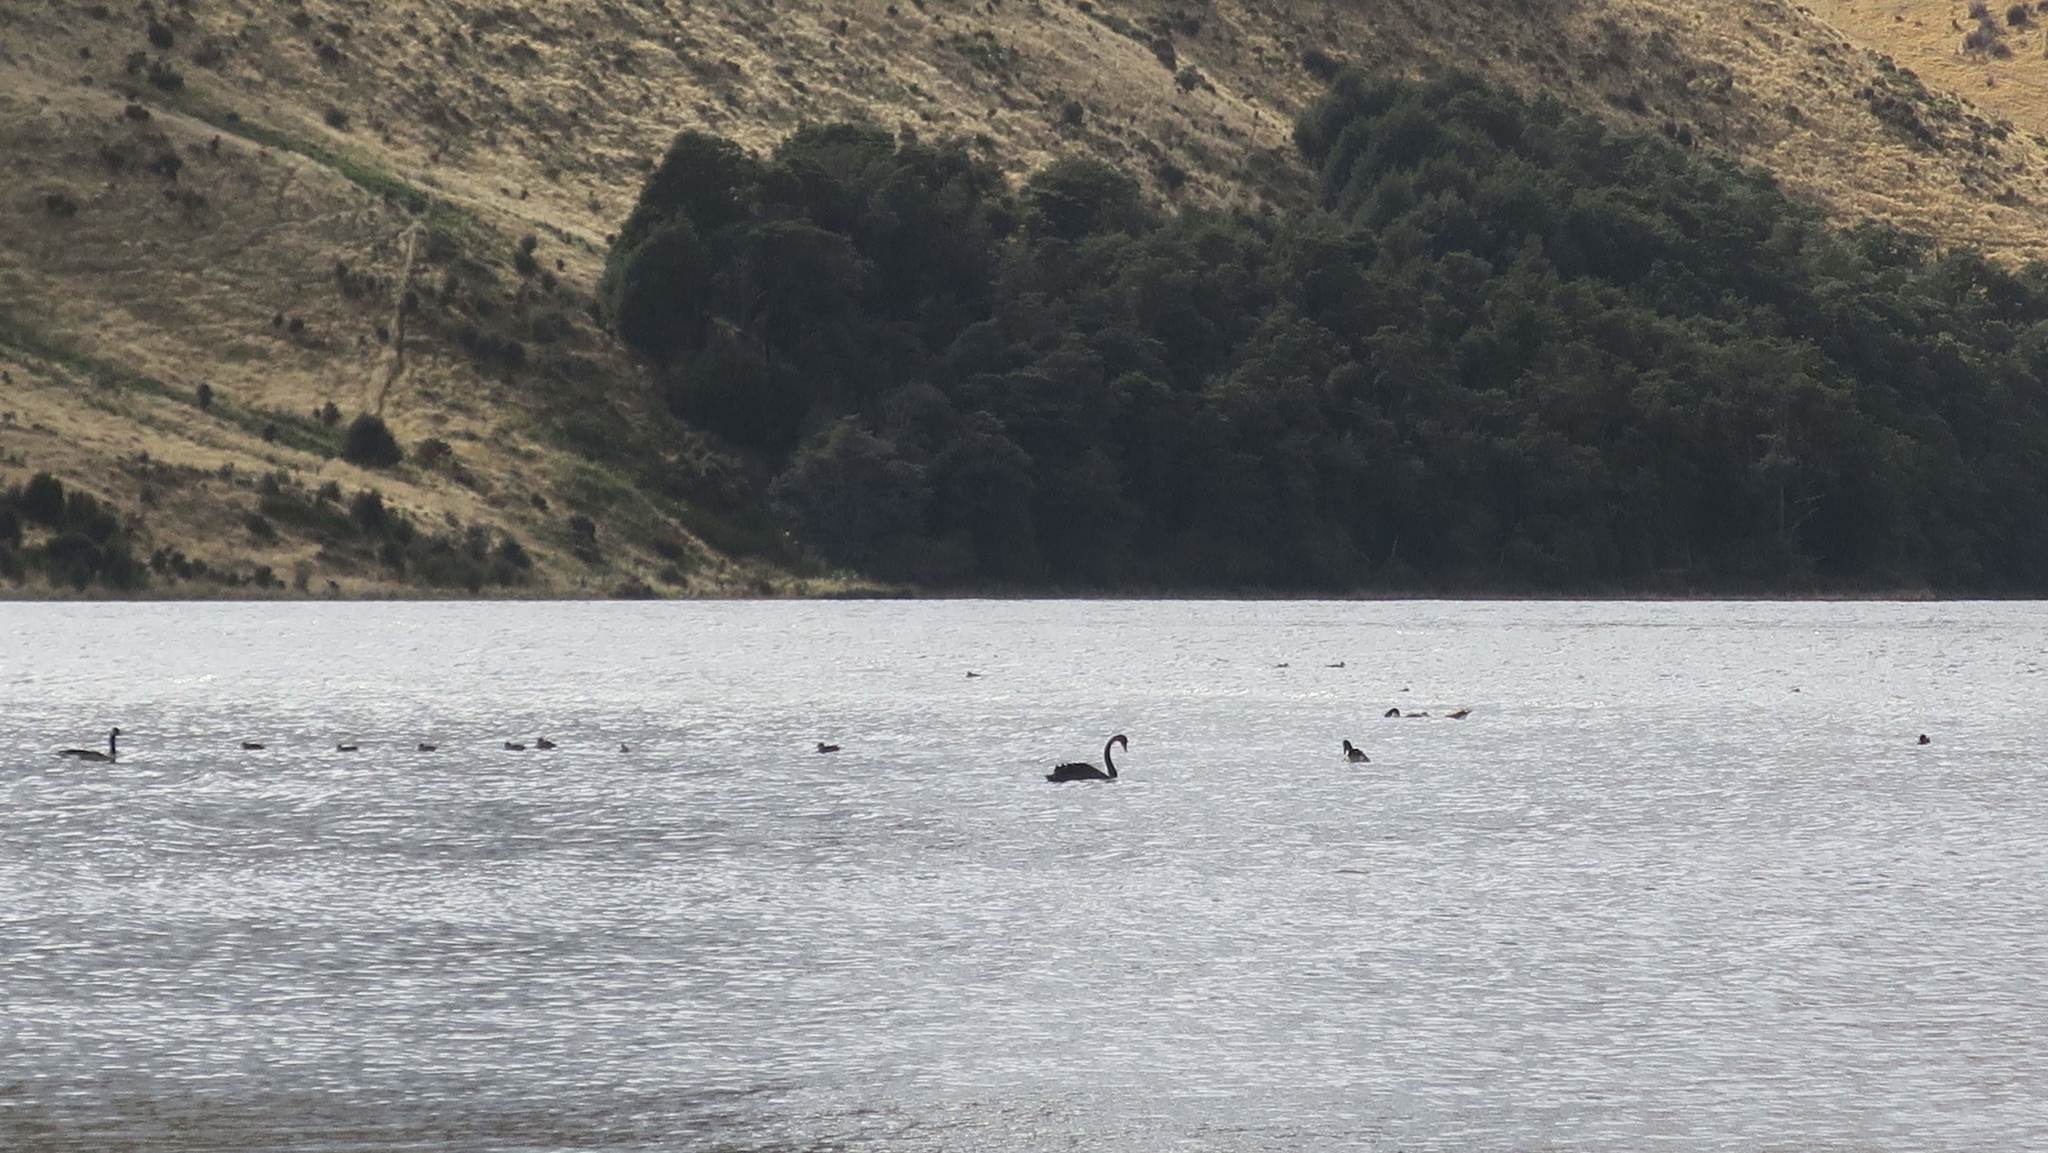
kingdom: Animalia
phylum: Chordata
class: Aves
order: Anseriformes
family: Anatidae
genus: Cygnus
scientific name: Cygnus atratus
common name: Black swan
